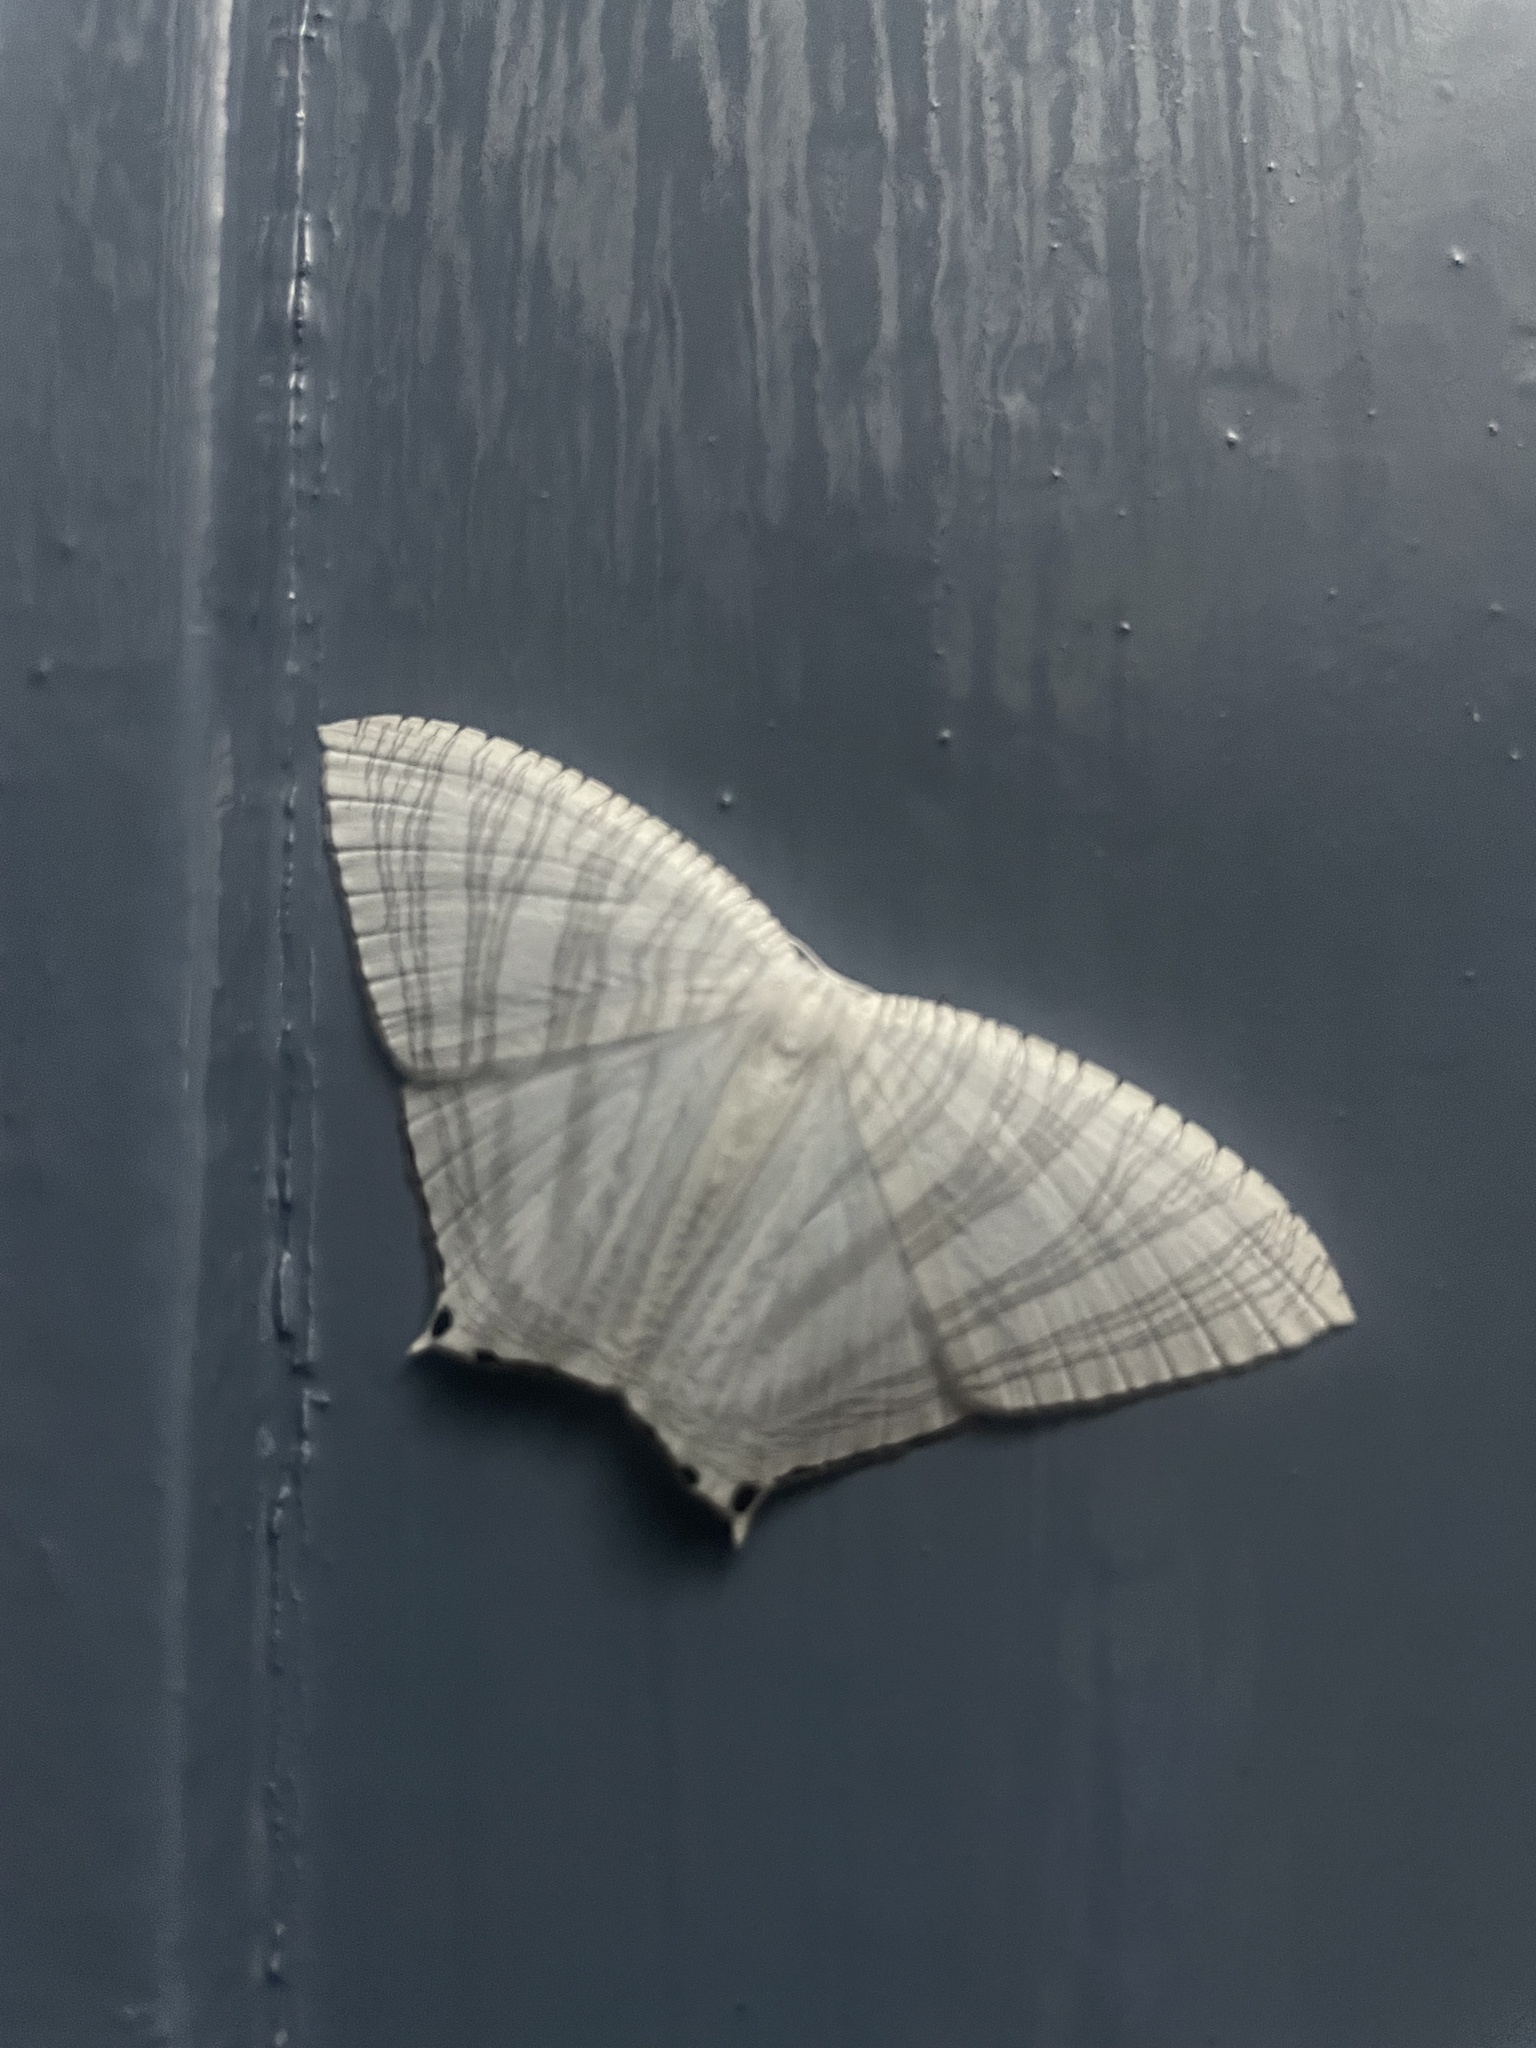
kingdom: Animalia
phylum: Arthropoda
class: Insecta
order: Lepidoptera
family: Uraniidae
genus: Micronia
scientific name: Micronia aculeata
